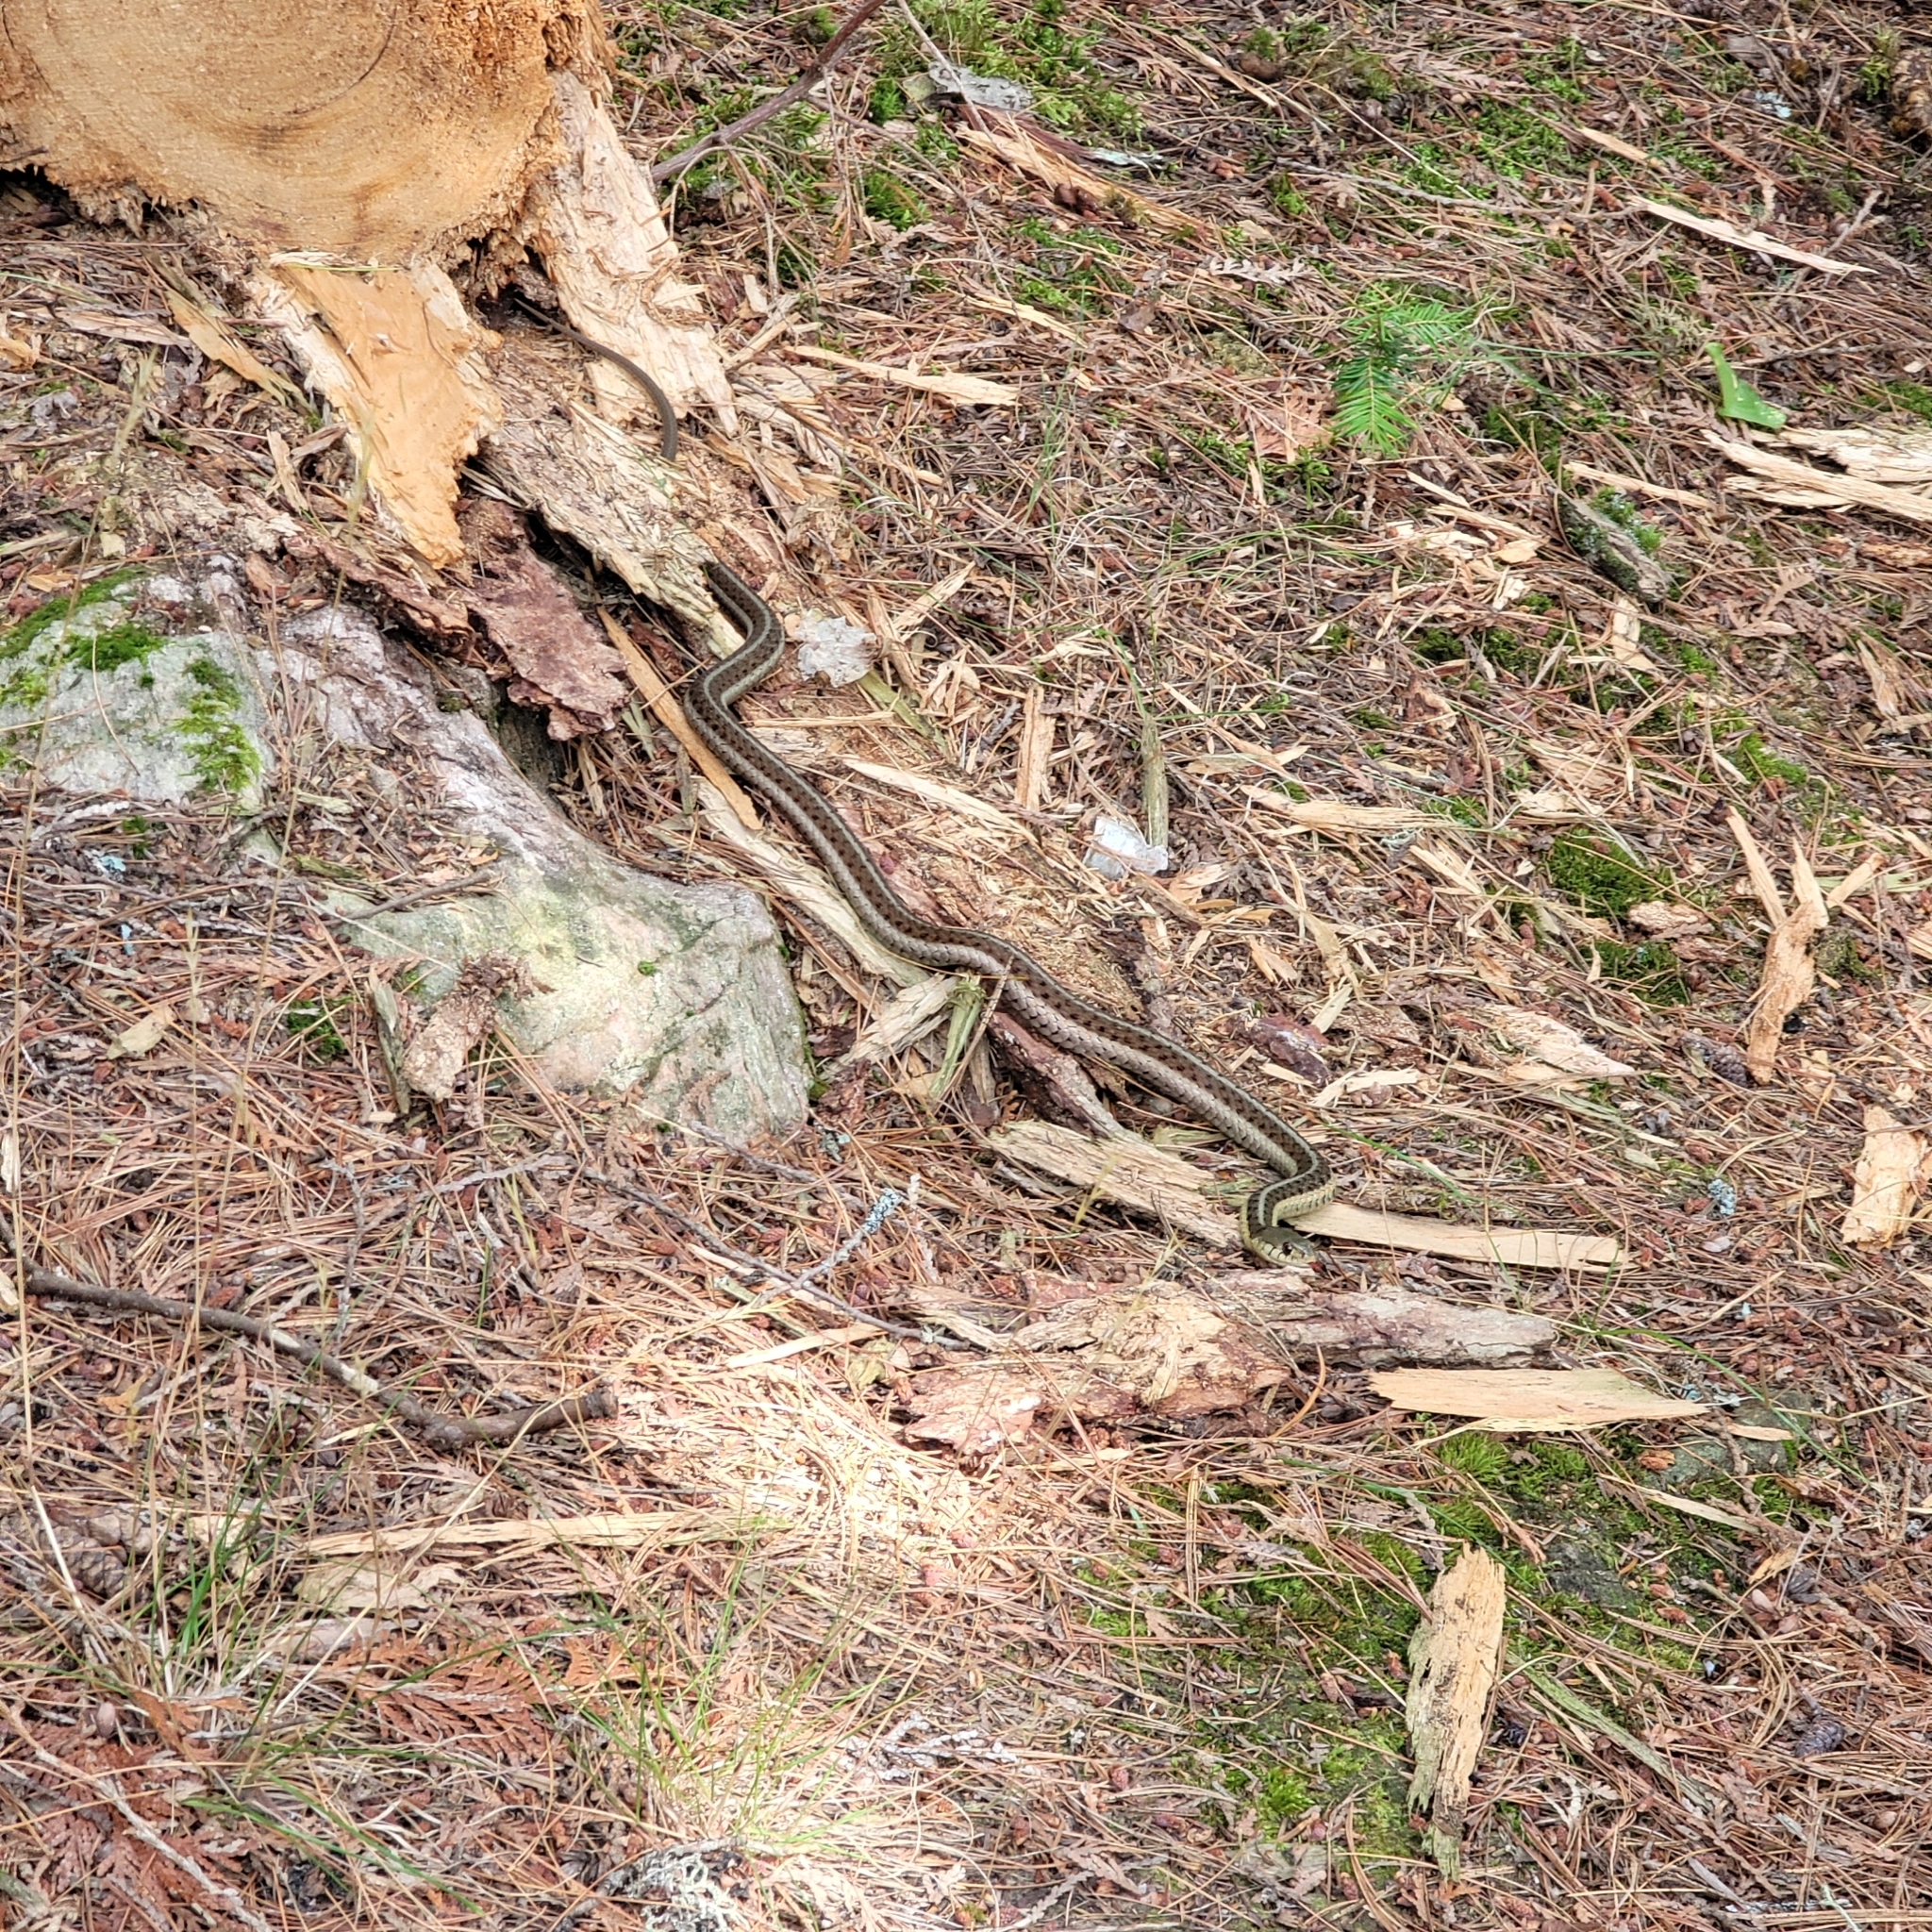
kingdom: Animalia
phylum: Chordata
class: Squamata
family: Colubridae
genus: Thamnophis
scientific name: Thamnophis sirtalis
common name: Common garter snake
